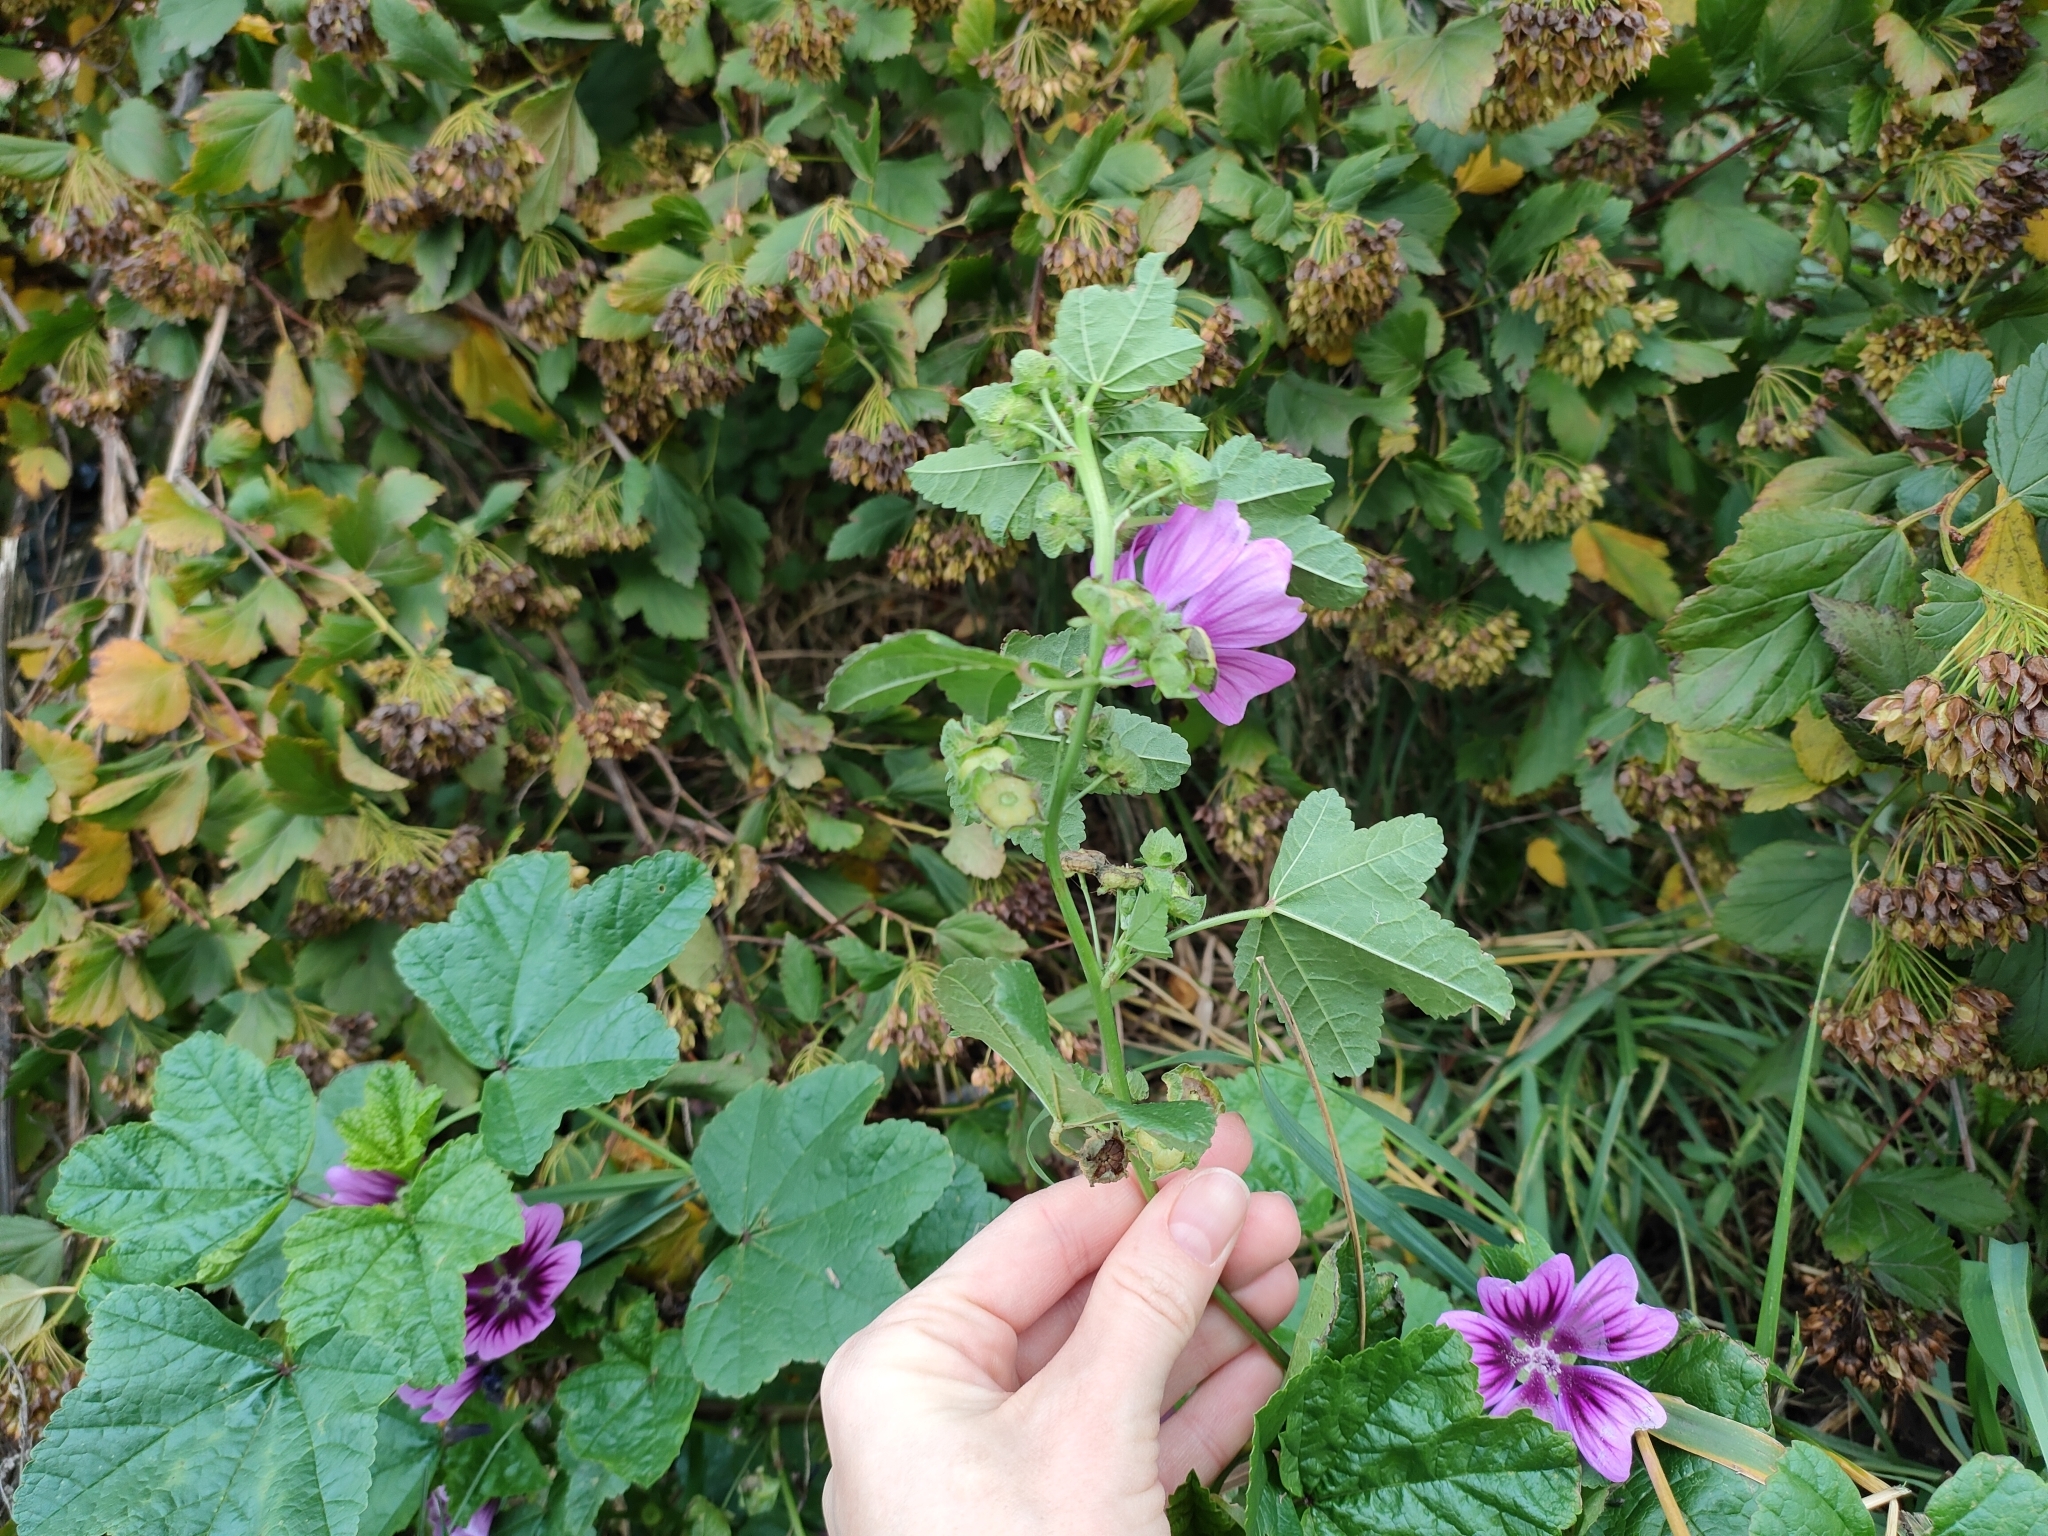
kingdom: Plantae
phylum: Tracheophyta
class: Magnoliopsida
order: Malvales
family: Malvaceae
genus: Malva
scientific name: Malva sylvestris
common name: Common mallow
